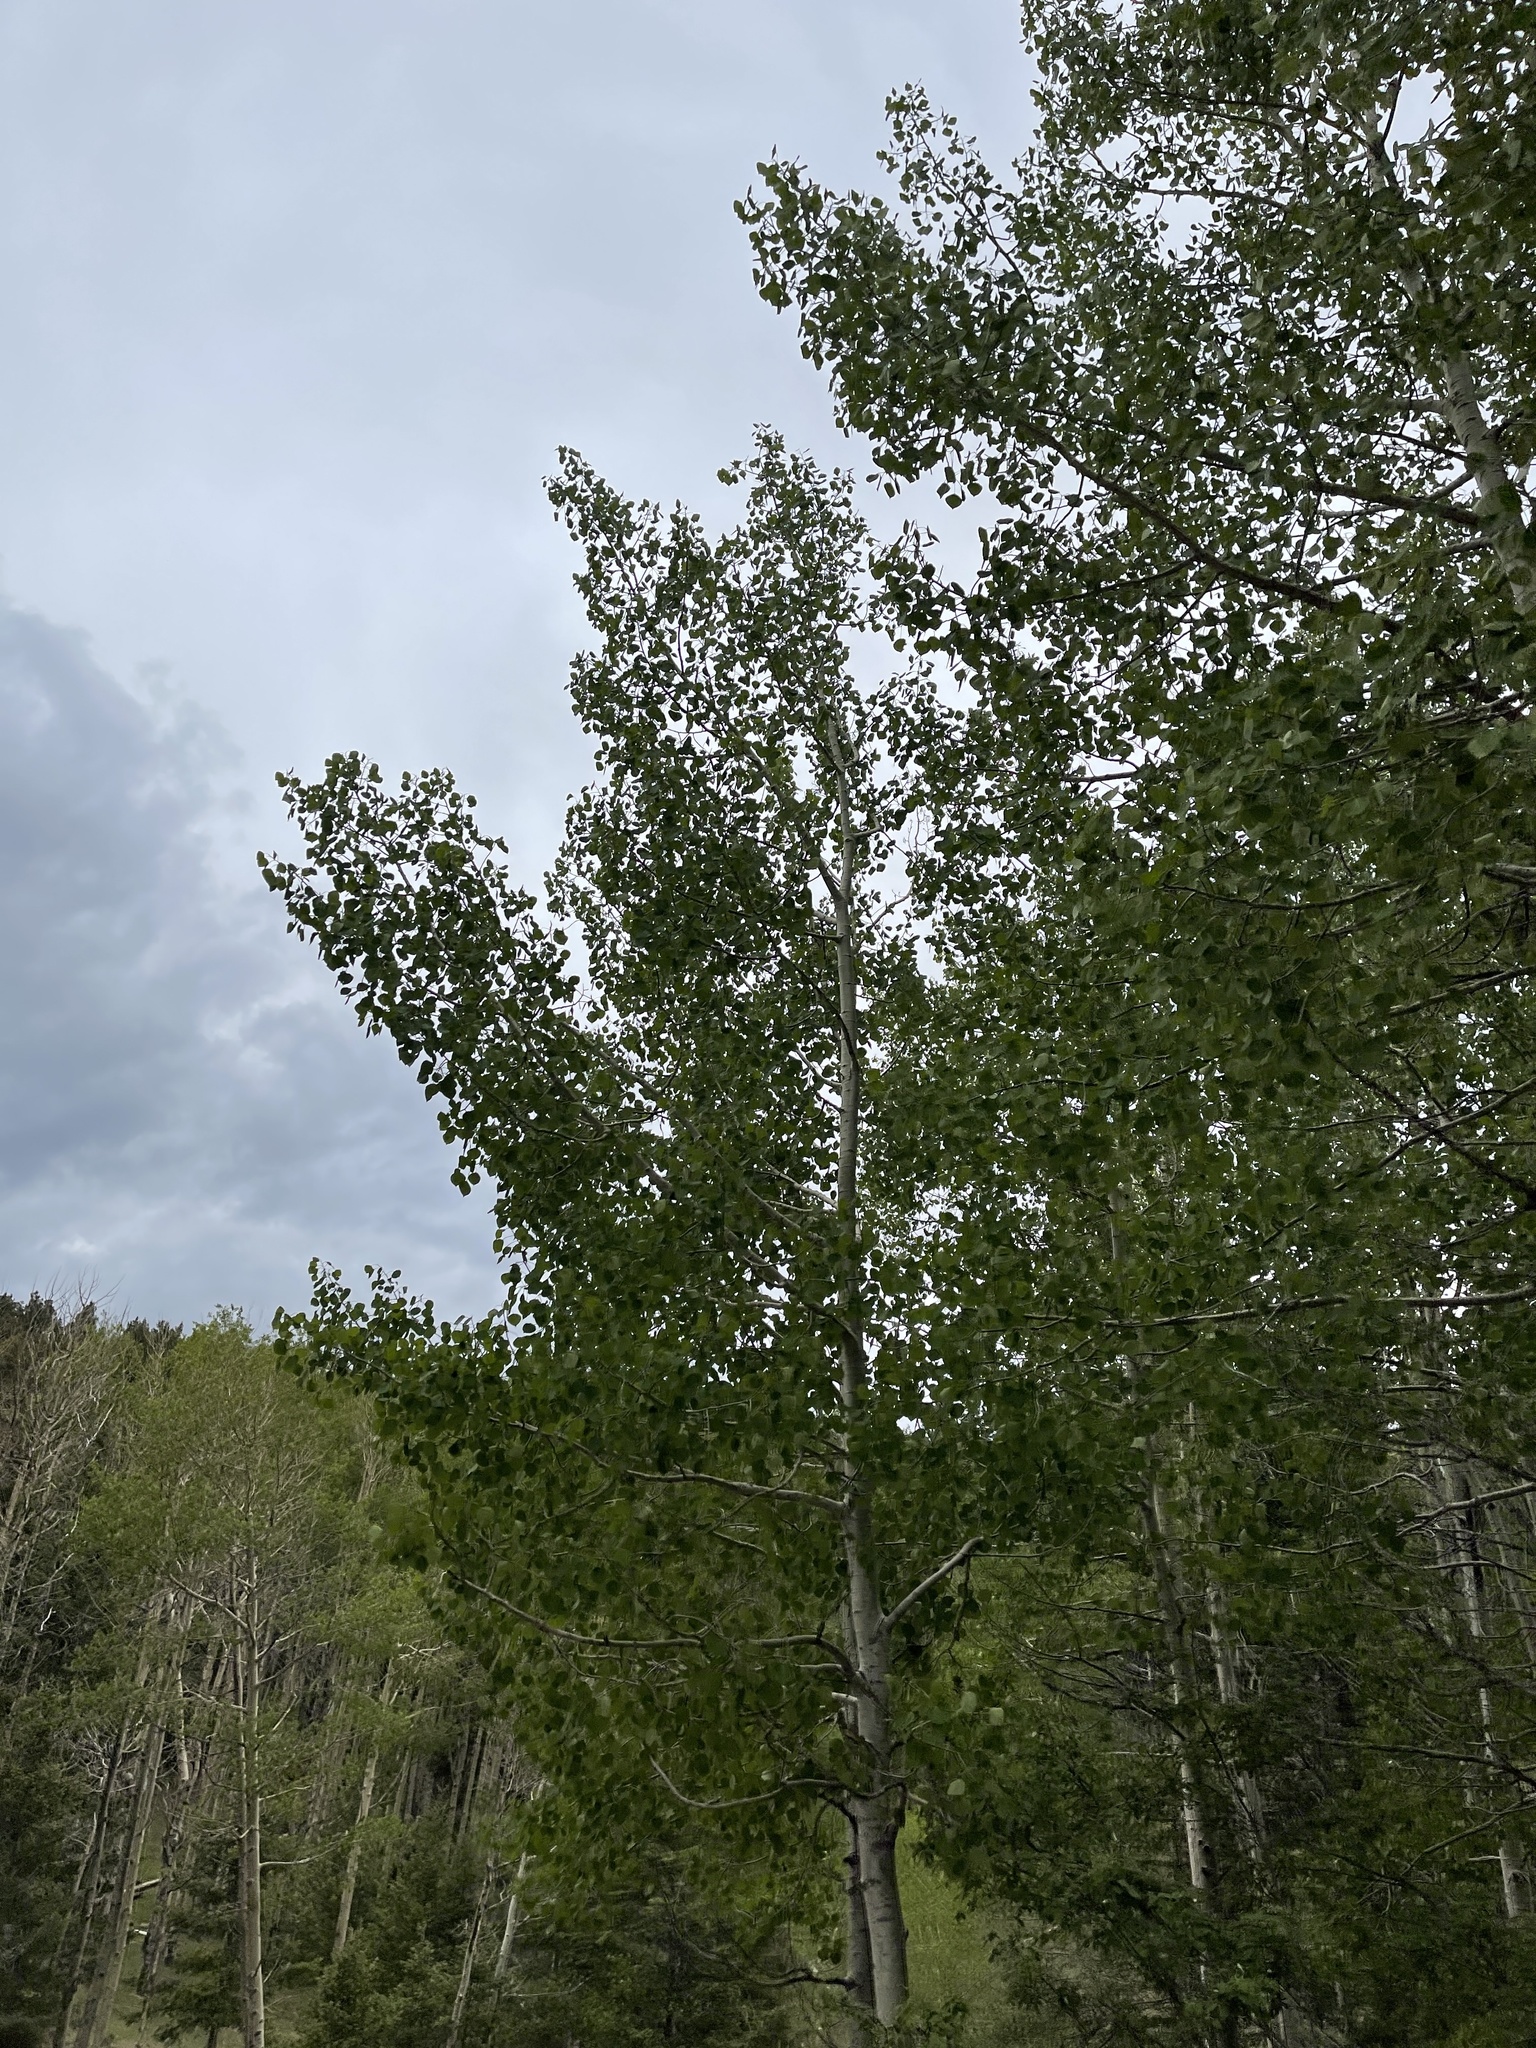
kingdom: Plantae
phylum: Tracheophyta
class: Magnoliopsida
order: Malpighiales
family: Salicaceae
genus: Populus
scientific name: Populus tremuloides
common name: Quaking aspen
